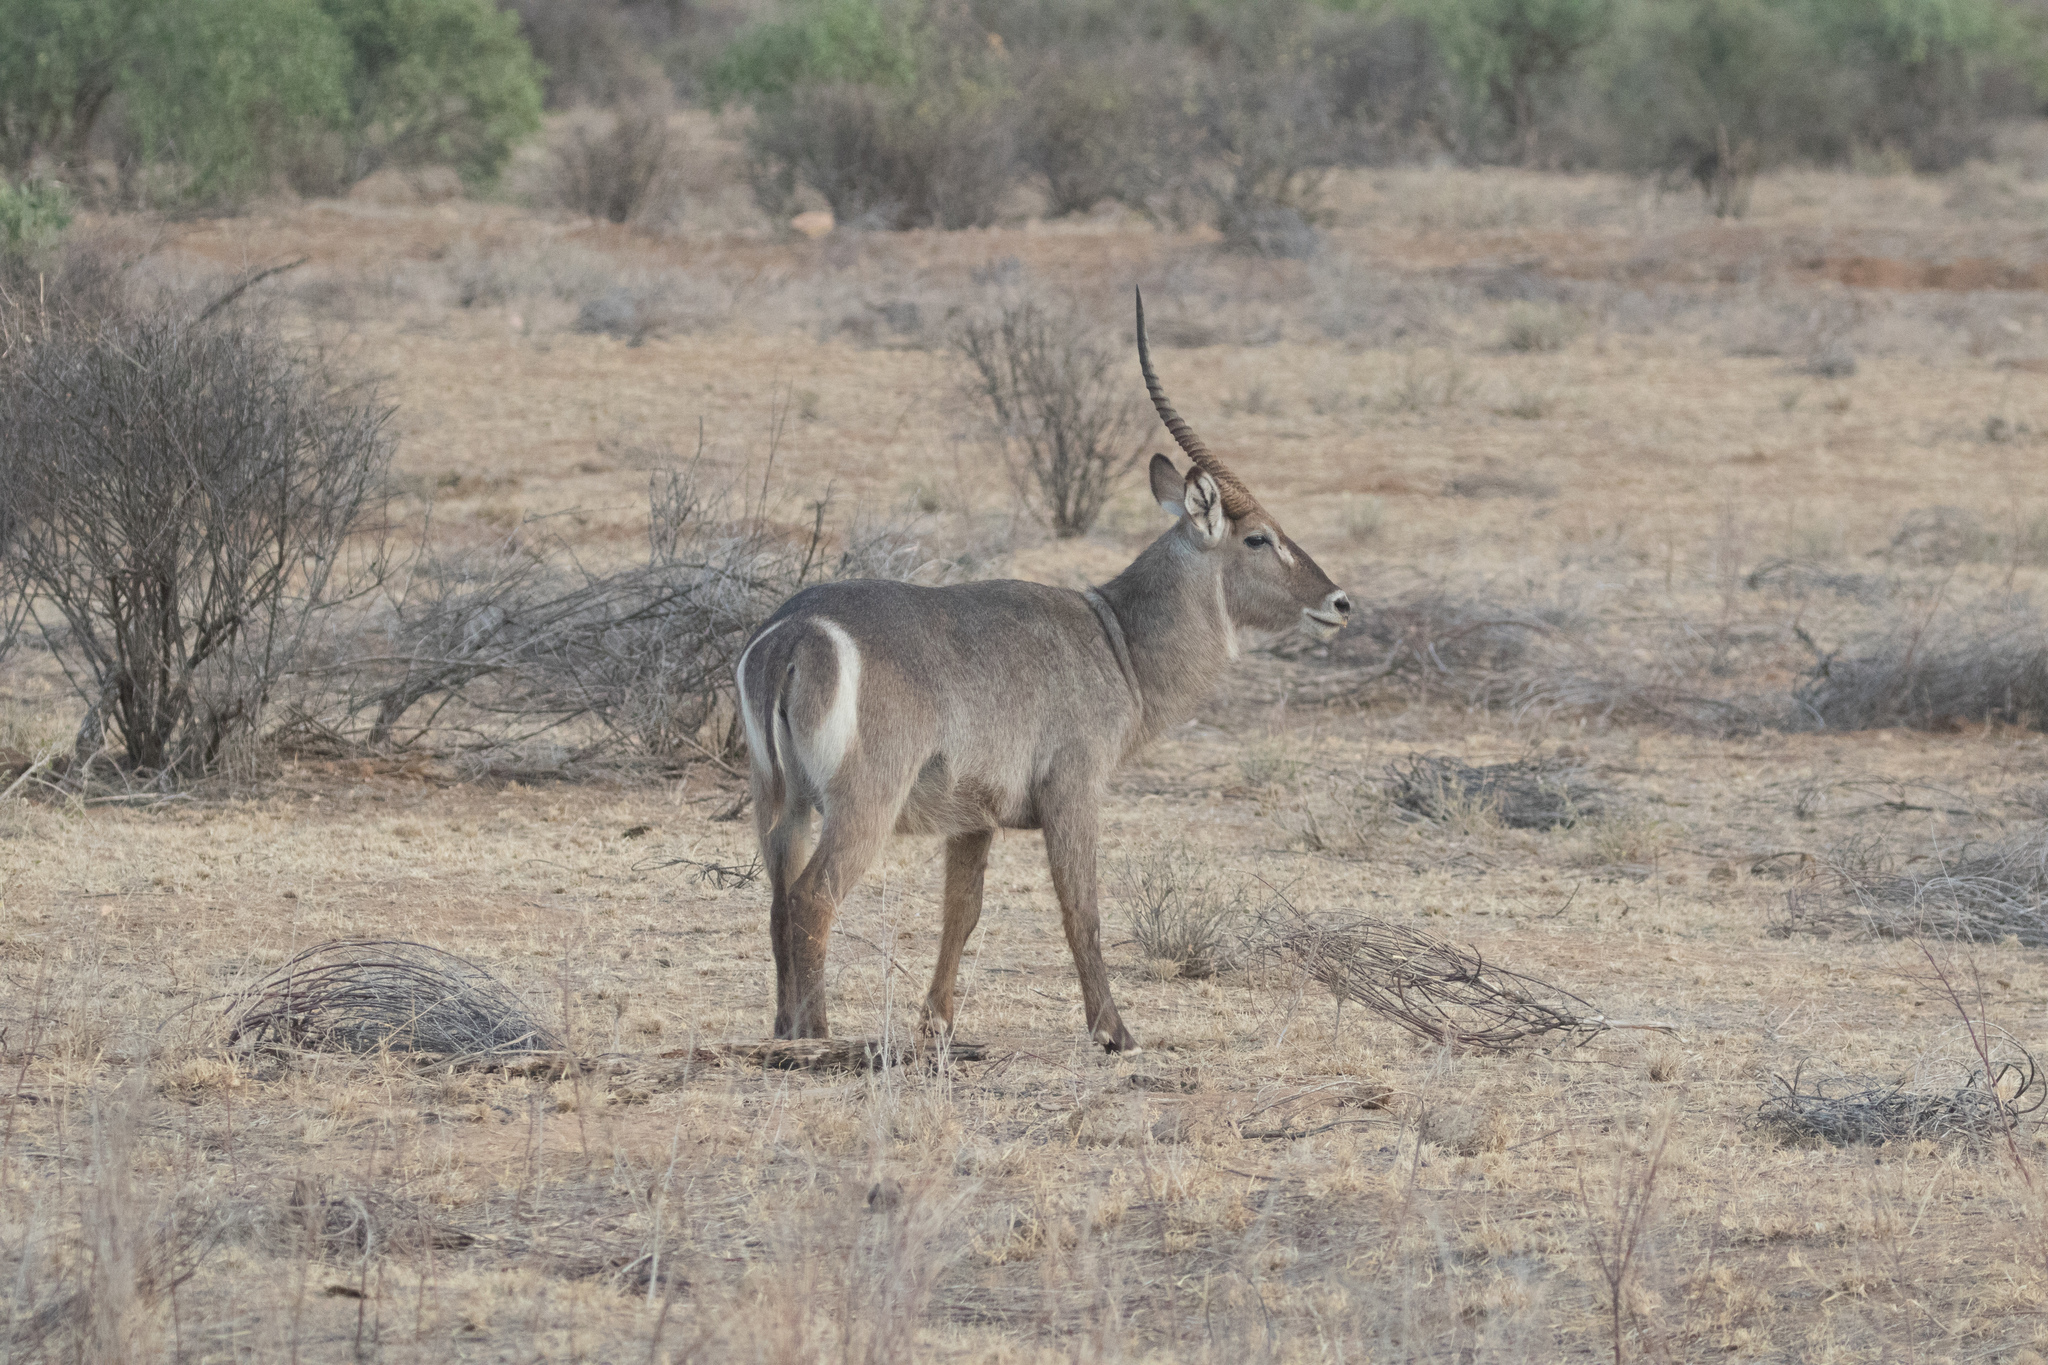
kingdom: Animalia
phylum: Chordata
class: Mammalia
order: Artiodactyla
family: Bovidae
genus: Kobus
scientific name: Kobus ellipsiprymnus
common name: Waterbuck
